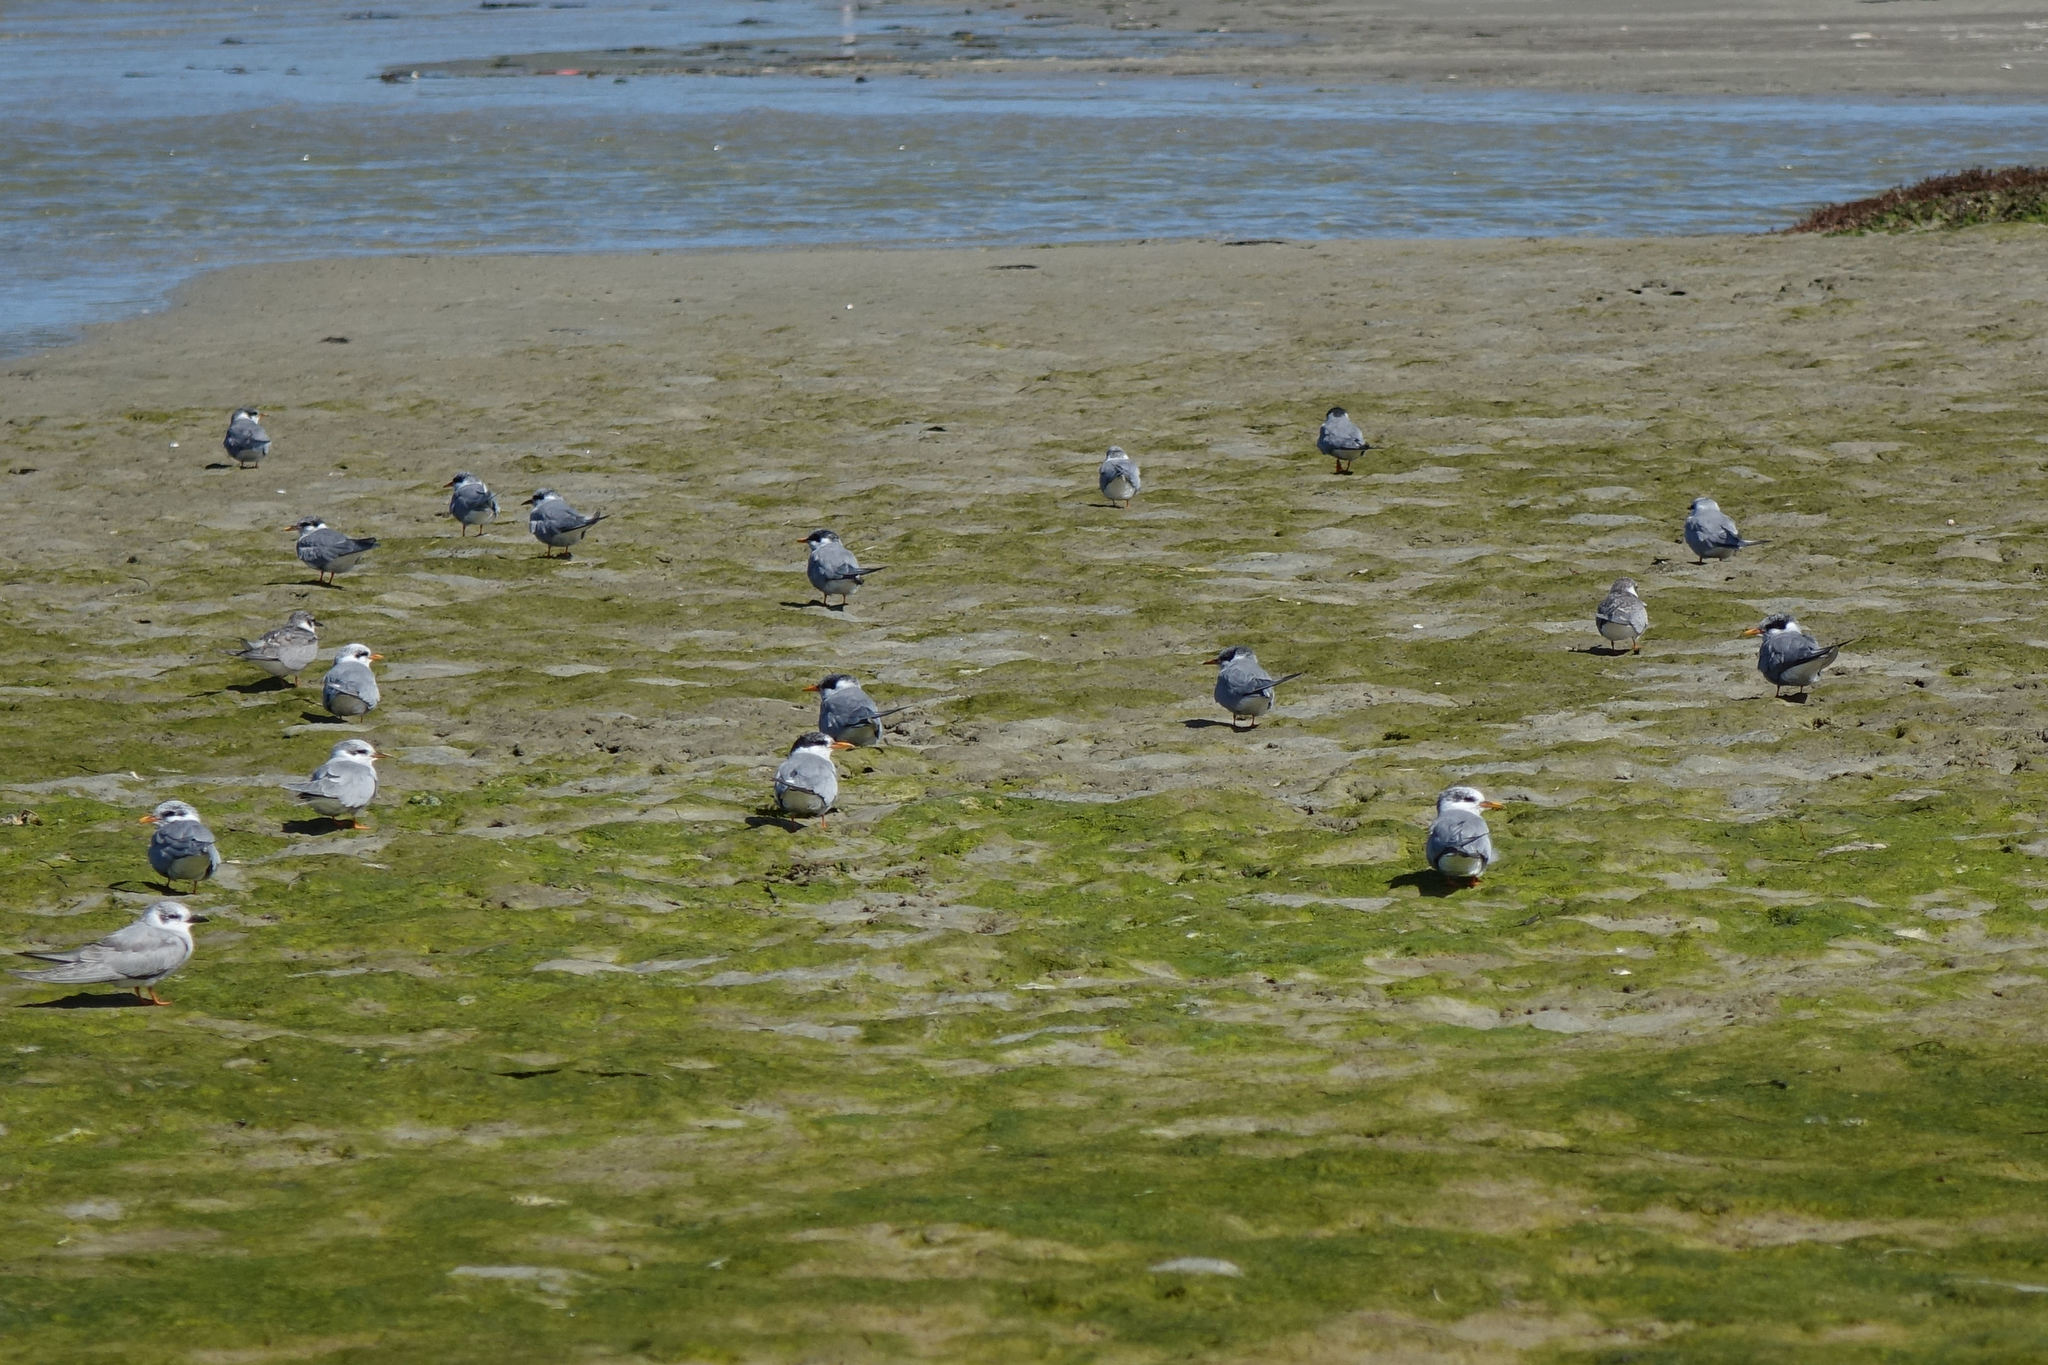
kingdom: Animalia
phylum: Chordata
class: Aves
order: Charadriiformes
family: Laridae
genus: Sterna
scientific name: Sterna striata
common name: White-fronted tern
